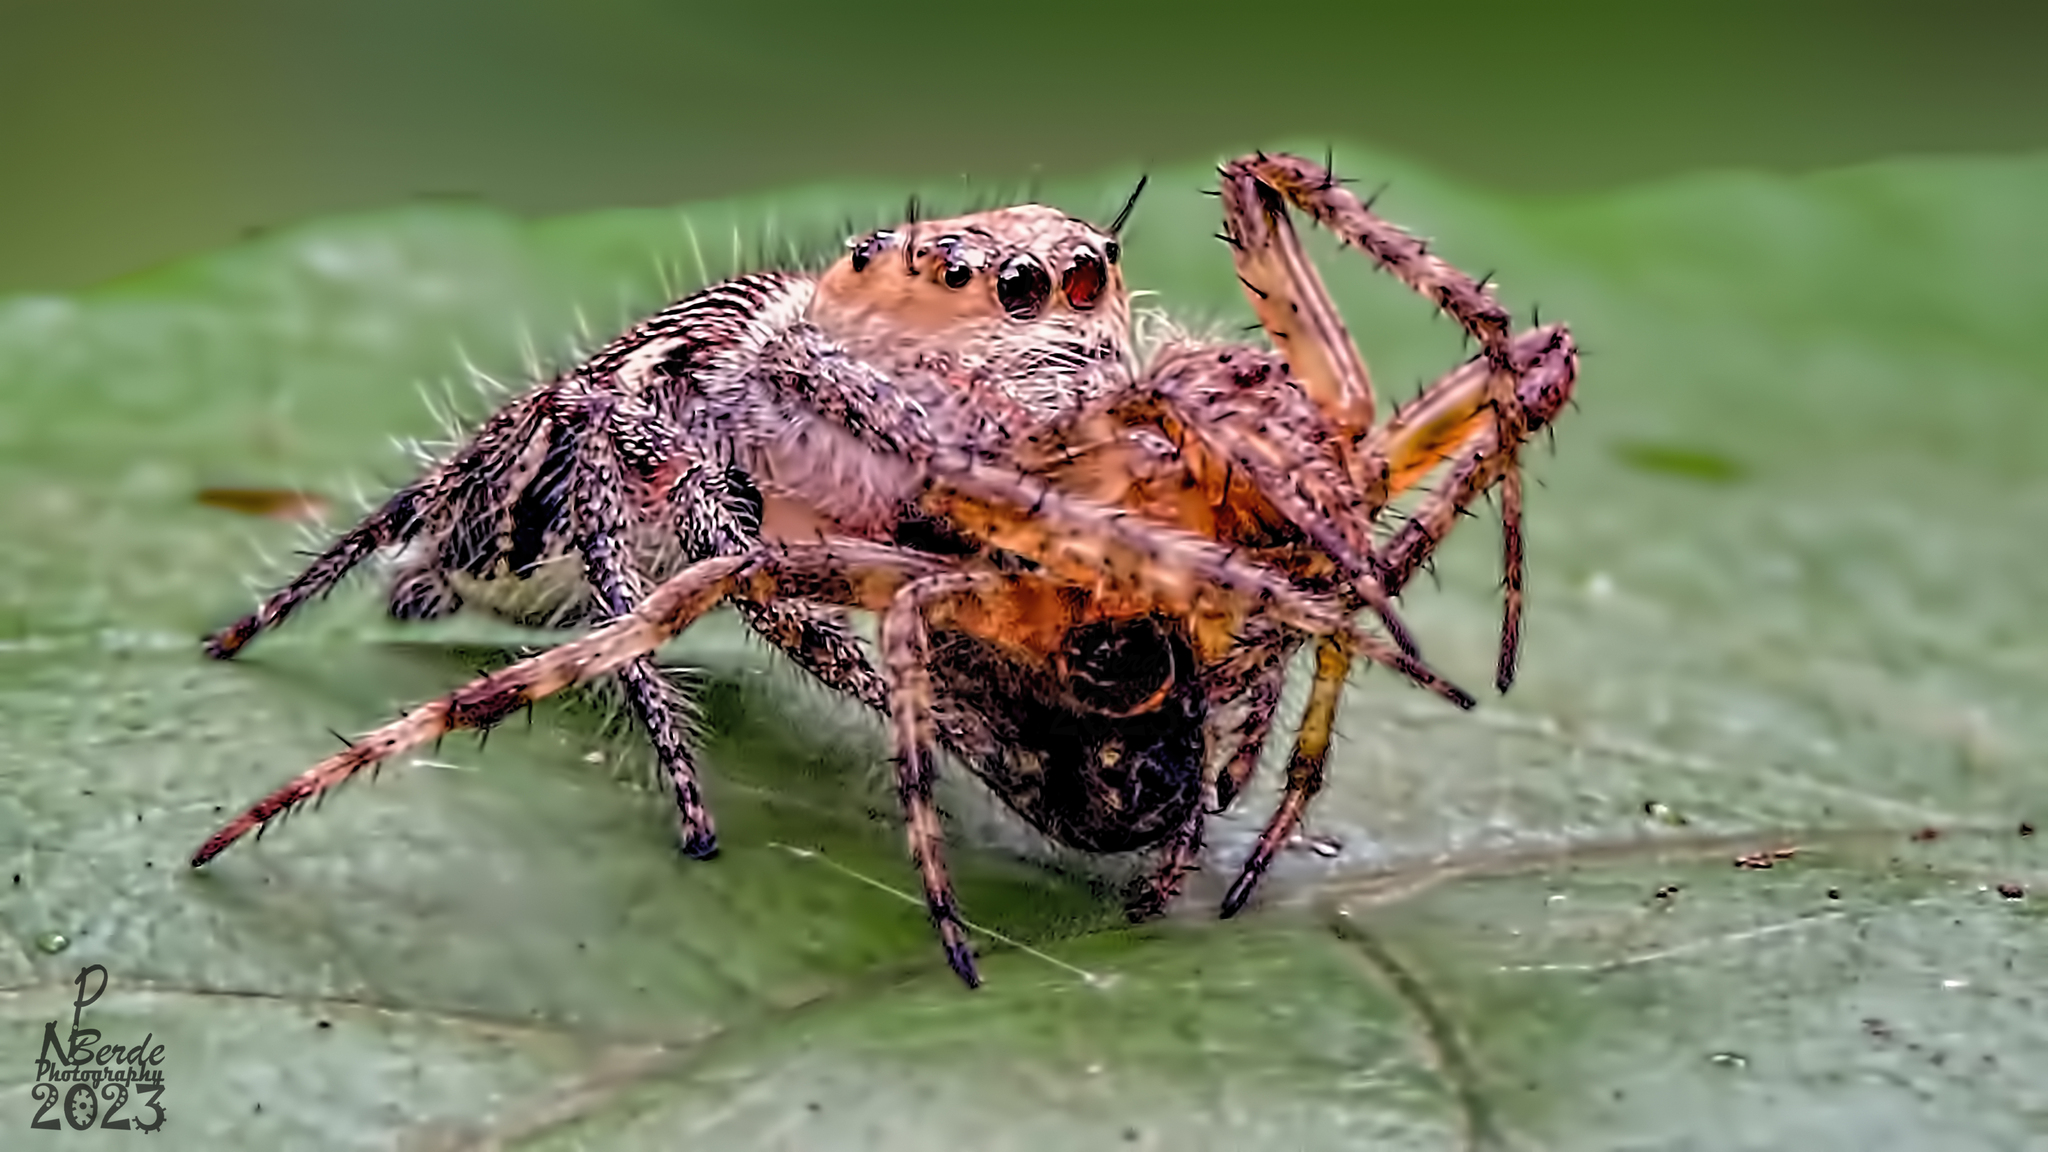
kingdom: Animalia
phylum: Arthropoda
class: Arachnida
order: Araneae
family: Salticidae
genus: Hyllus
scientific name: Hyllus semicupreus
